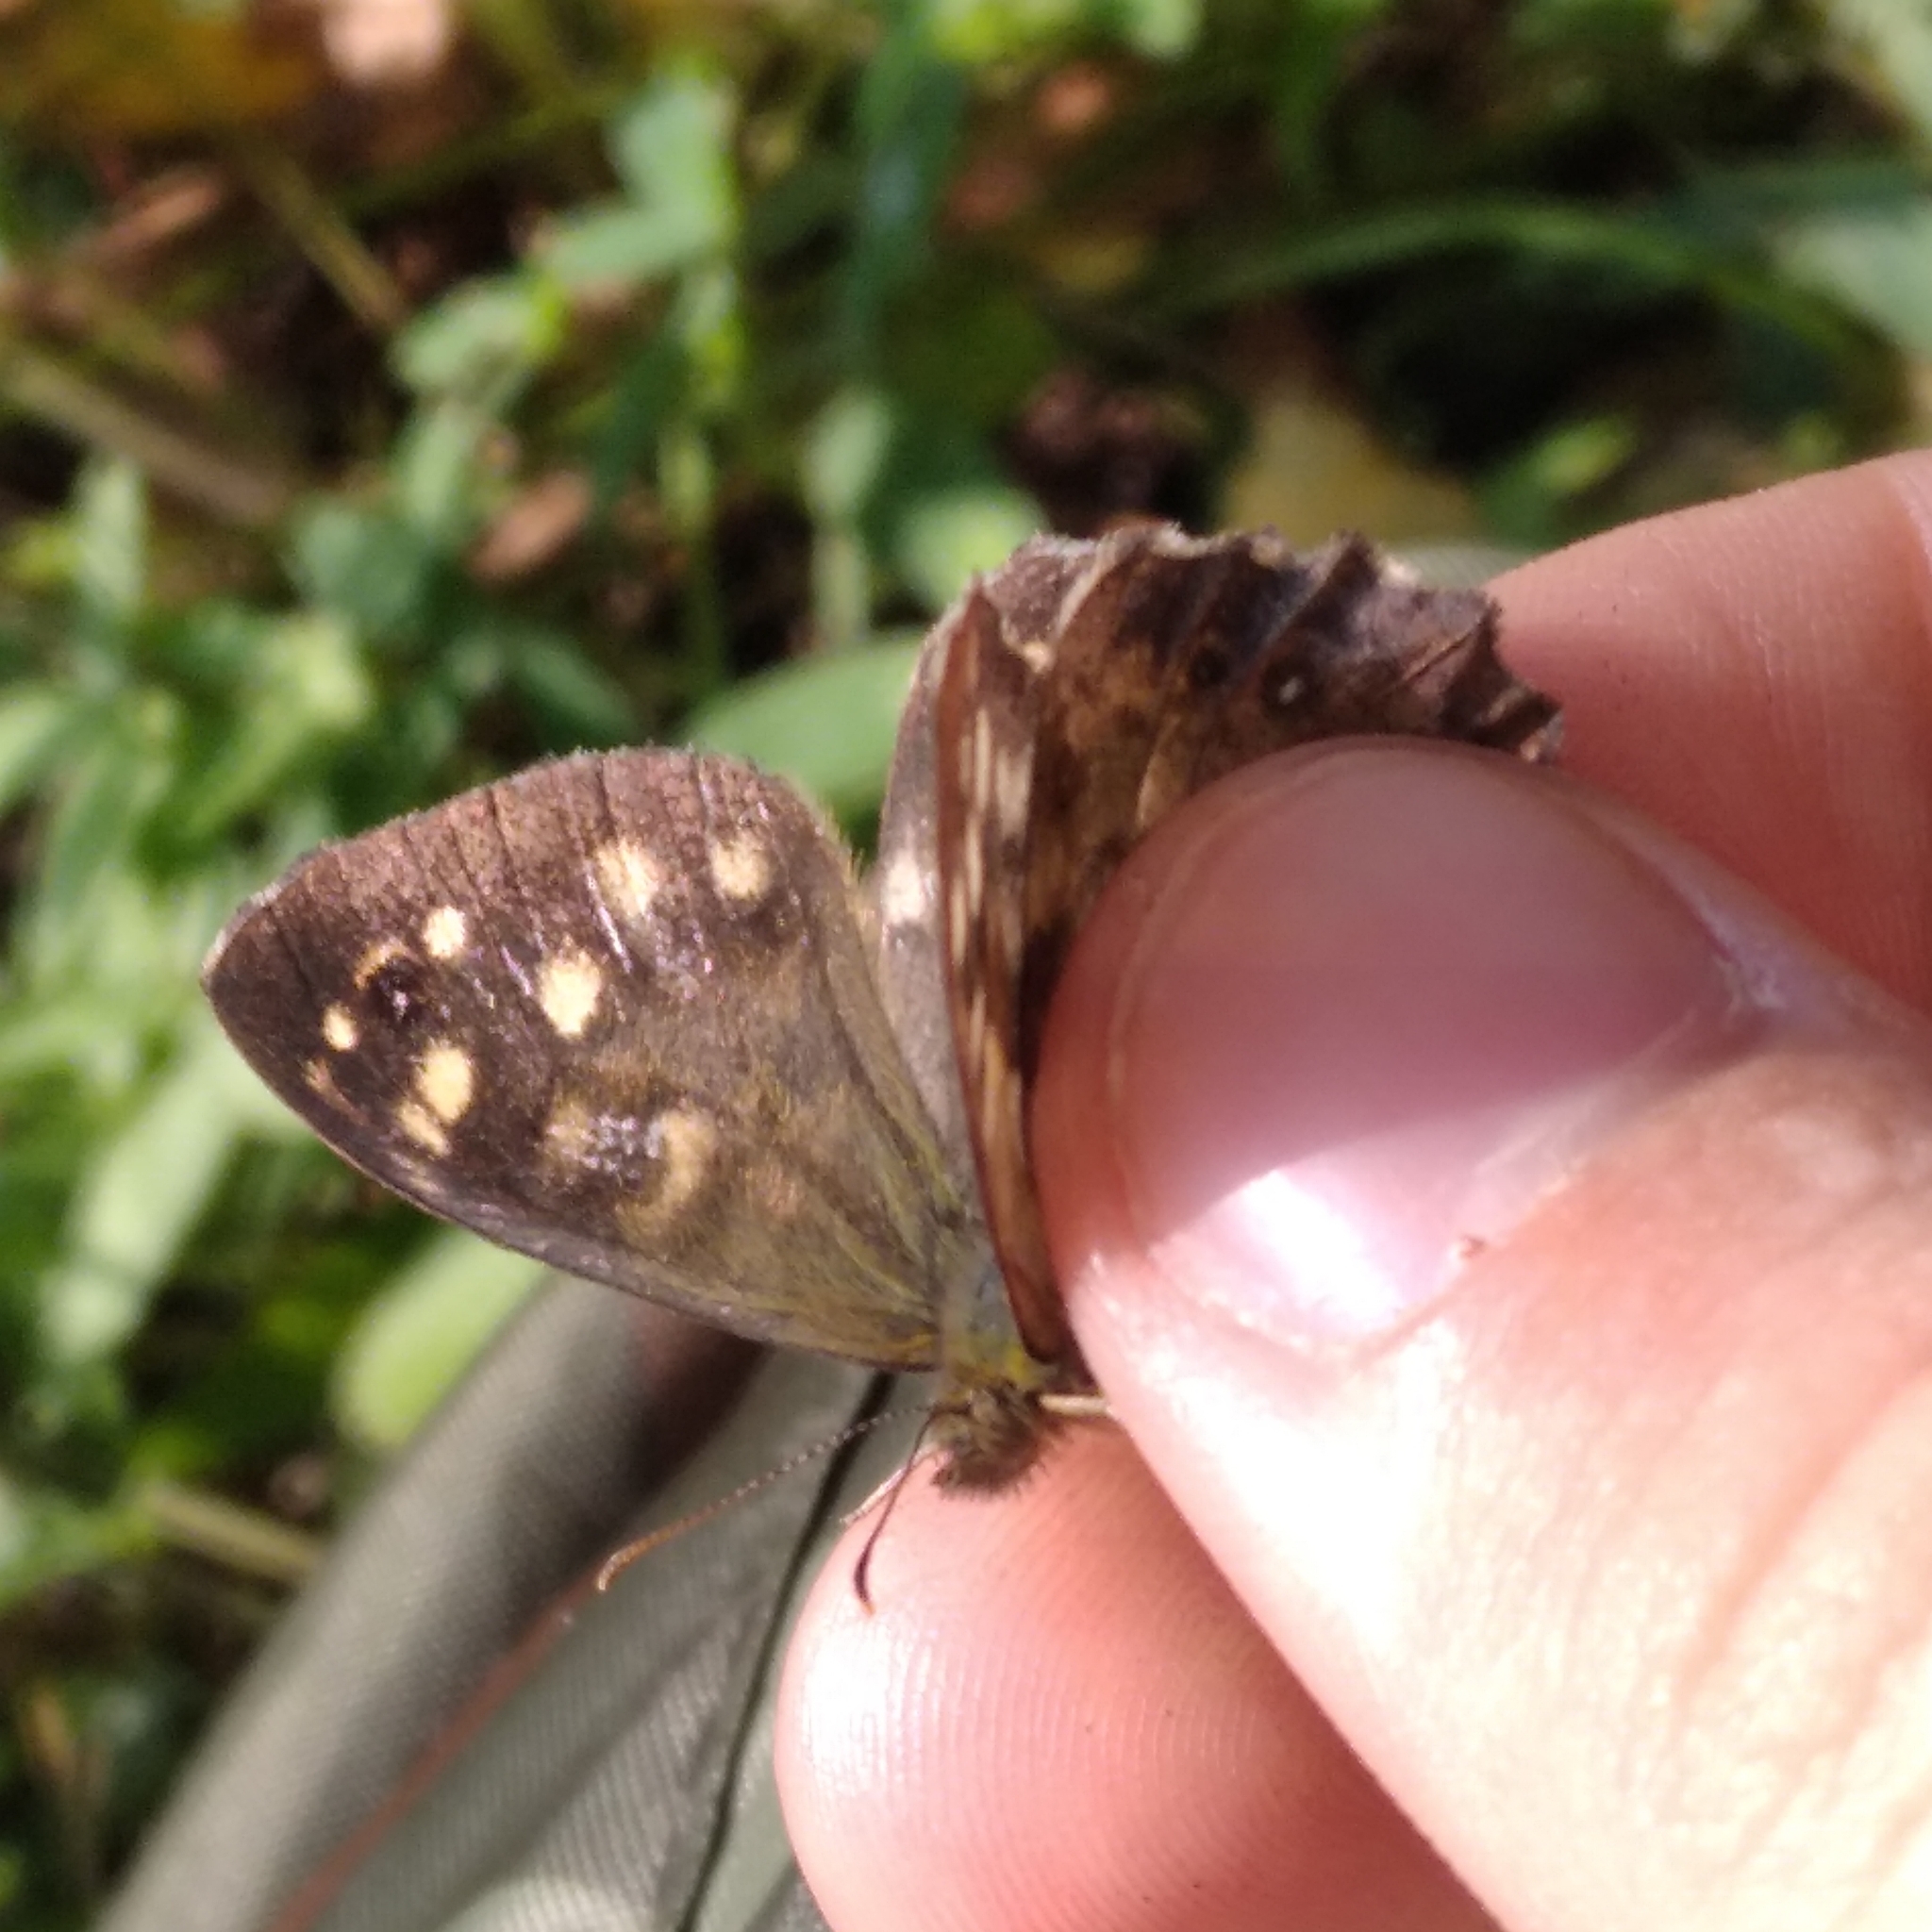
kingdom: Animalia
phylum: Arthropoda
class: Insecta
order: Lepidoptera
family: Nymphalidae
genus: Pararge
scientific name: Pararge aegeria
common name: Speckled wood
